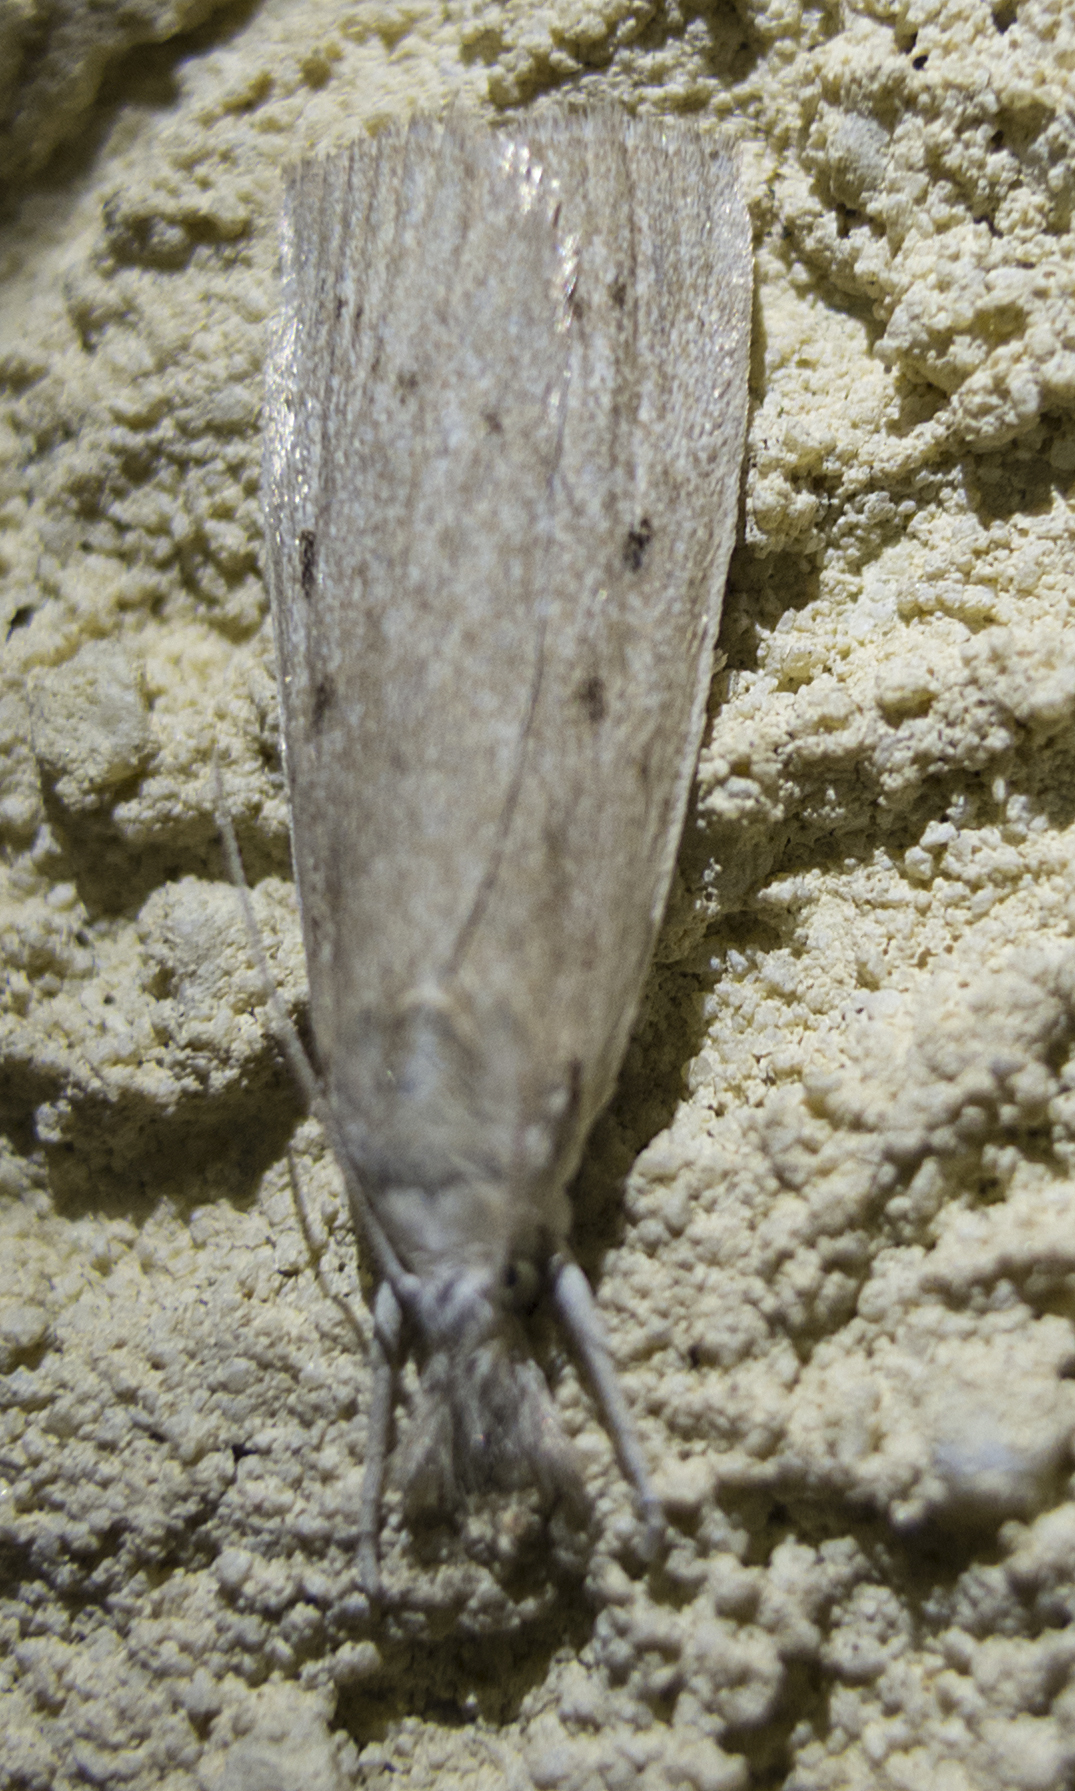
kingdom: Animalia
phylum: Arthropoda
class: Insecta
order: Lepidoptera
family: Crambidae
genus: Calamotropha
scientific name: Calamotropha paludella
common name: Bulrush veneer
